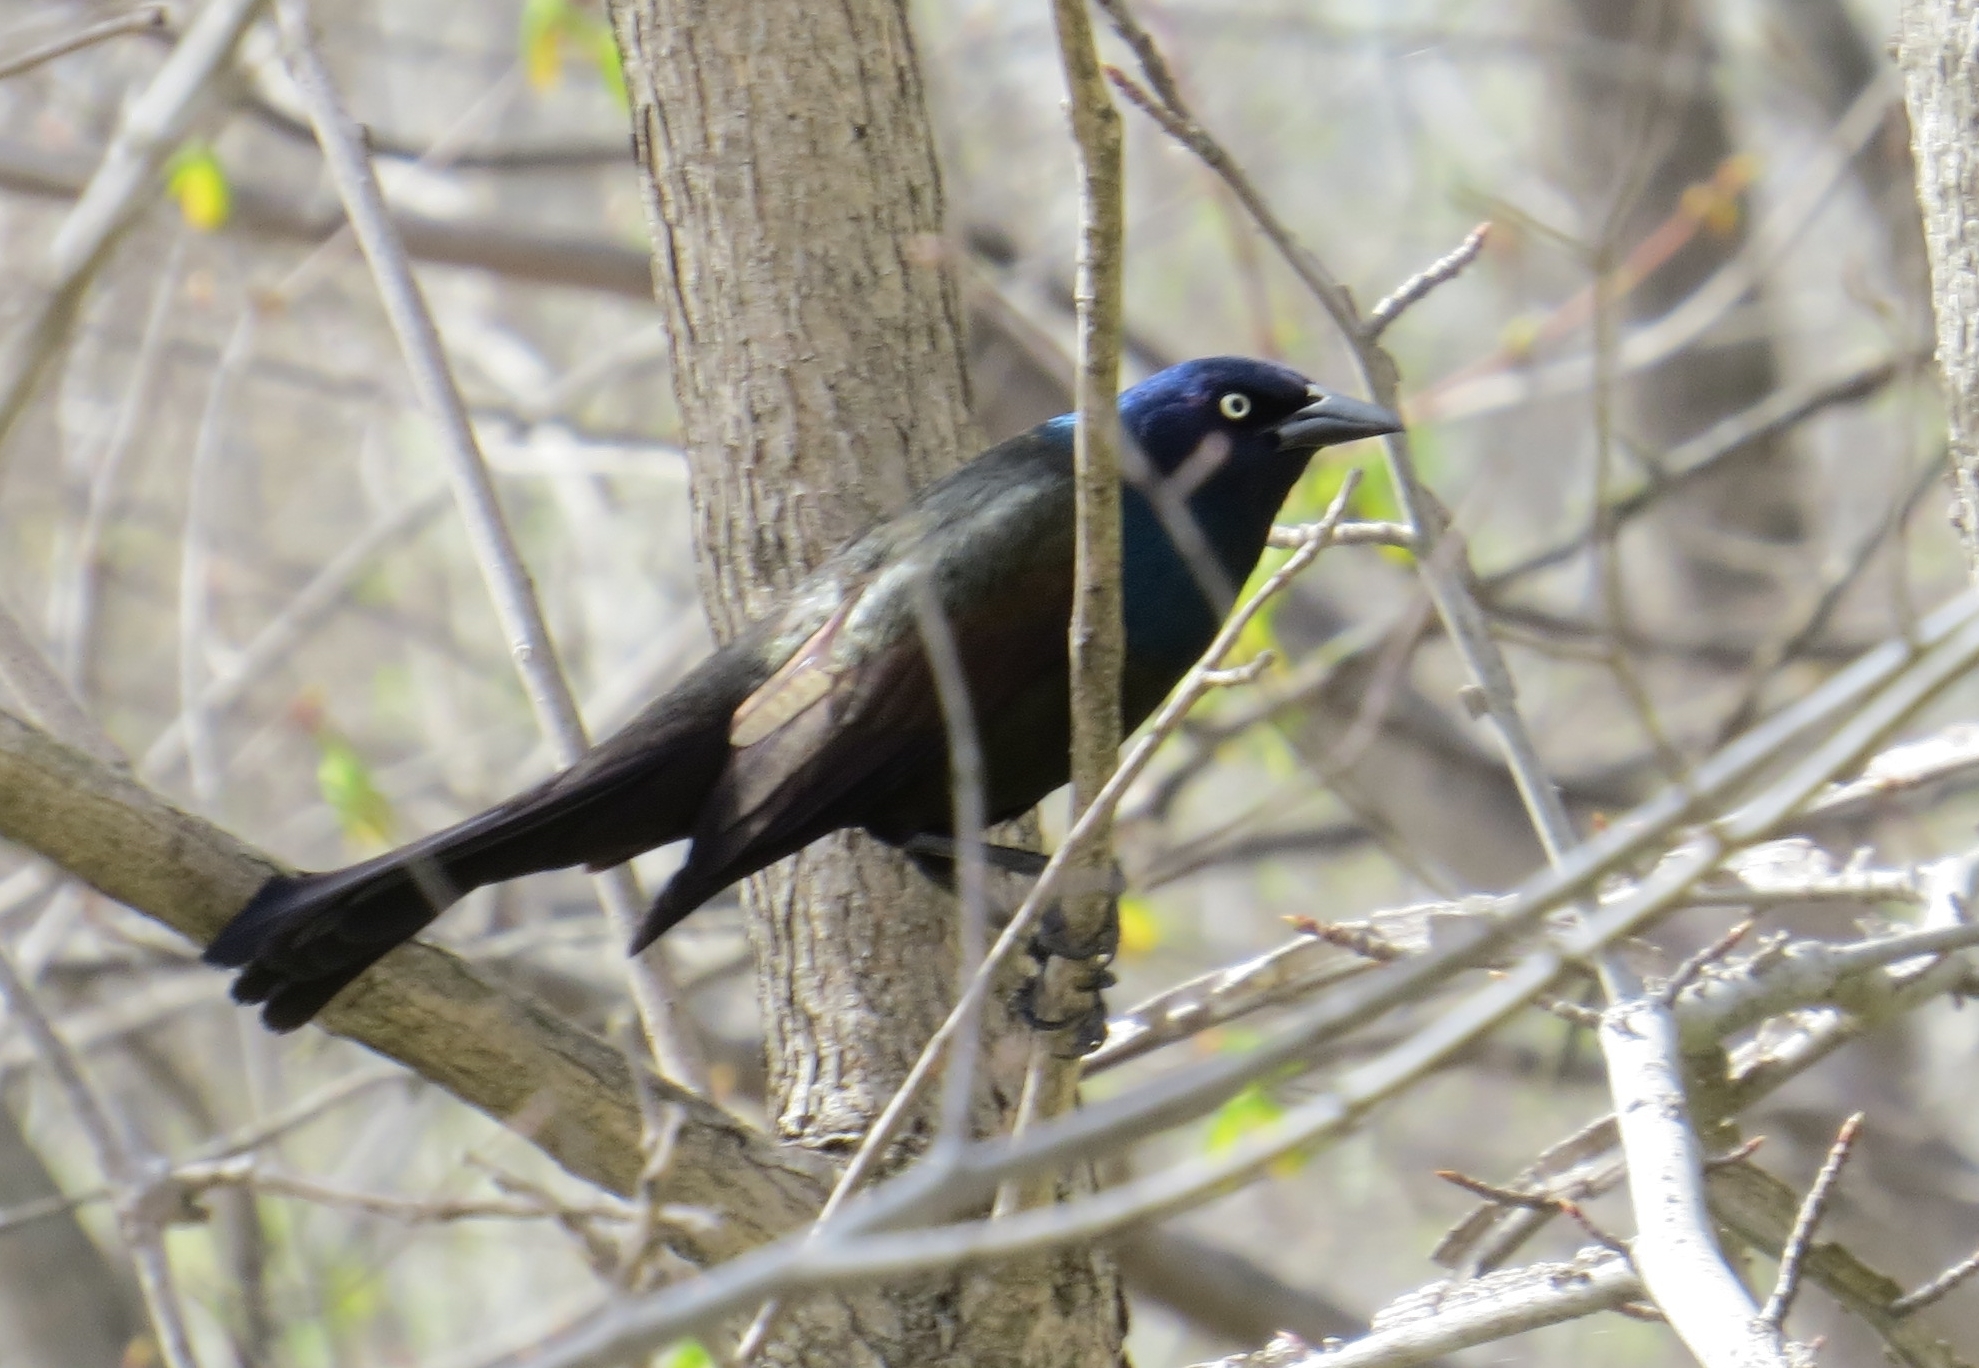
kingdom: Animalia
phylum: Chordata
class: Aves
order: Passeriformes
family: Icteridae
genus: Quiscalus
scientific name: Quiscalus quiscula
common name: Common grackle
